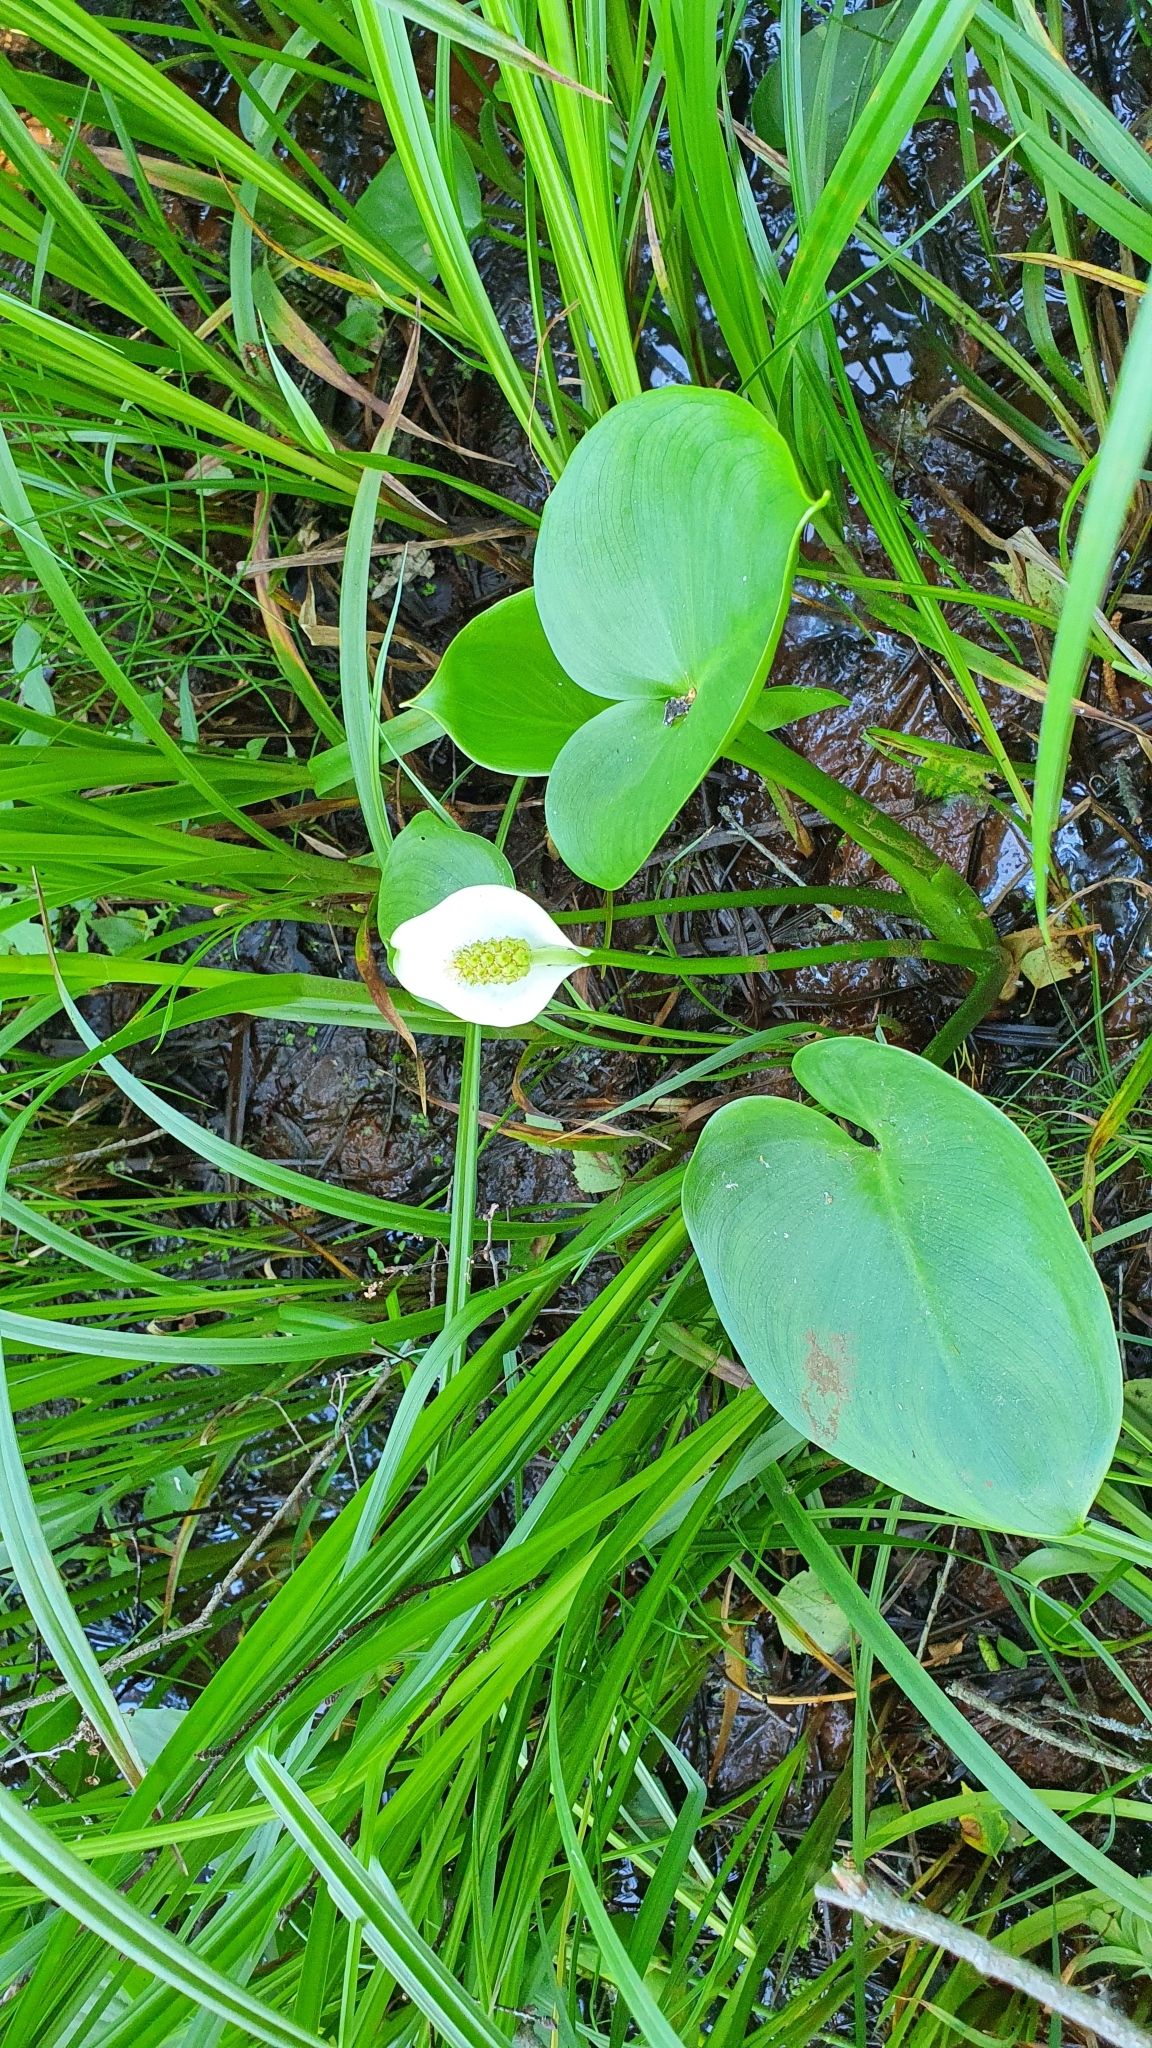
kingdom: Plantae
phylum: Tracheophyta
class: Liliopsida
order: Alismatales
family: Araceae
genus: Calla
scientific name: Calla palustris
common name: Bog arum
